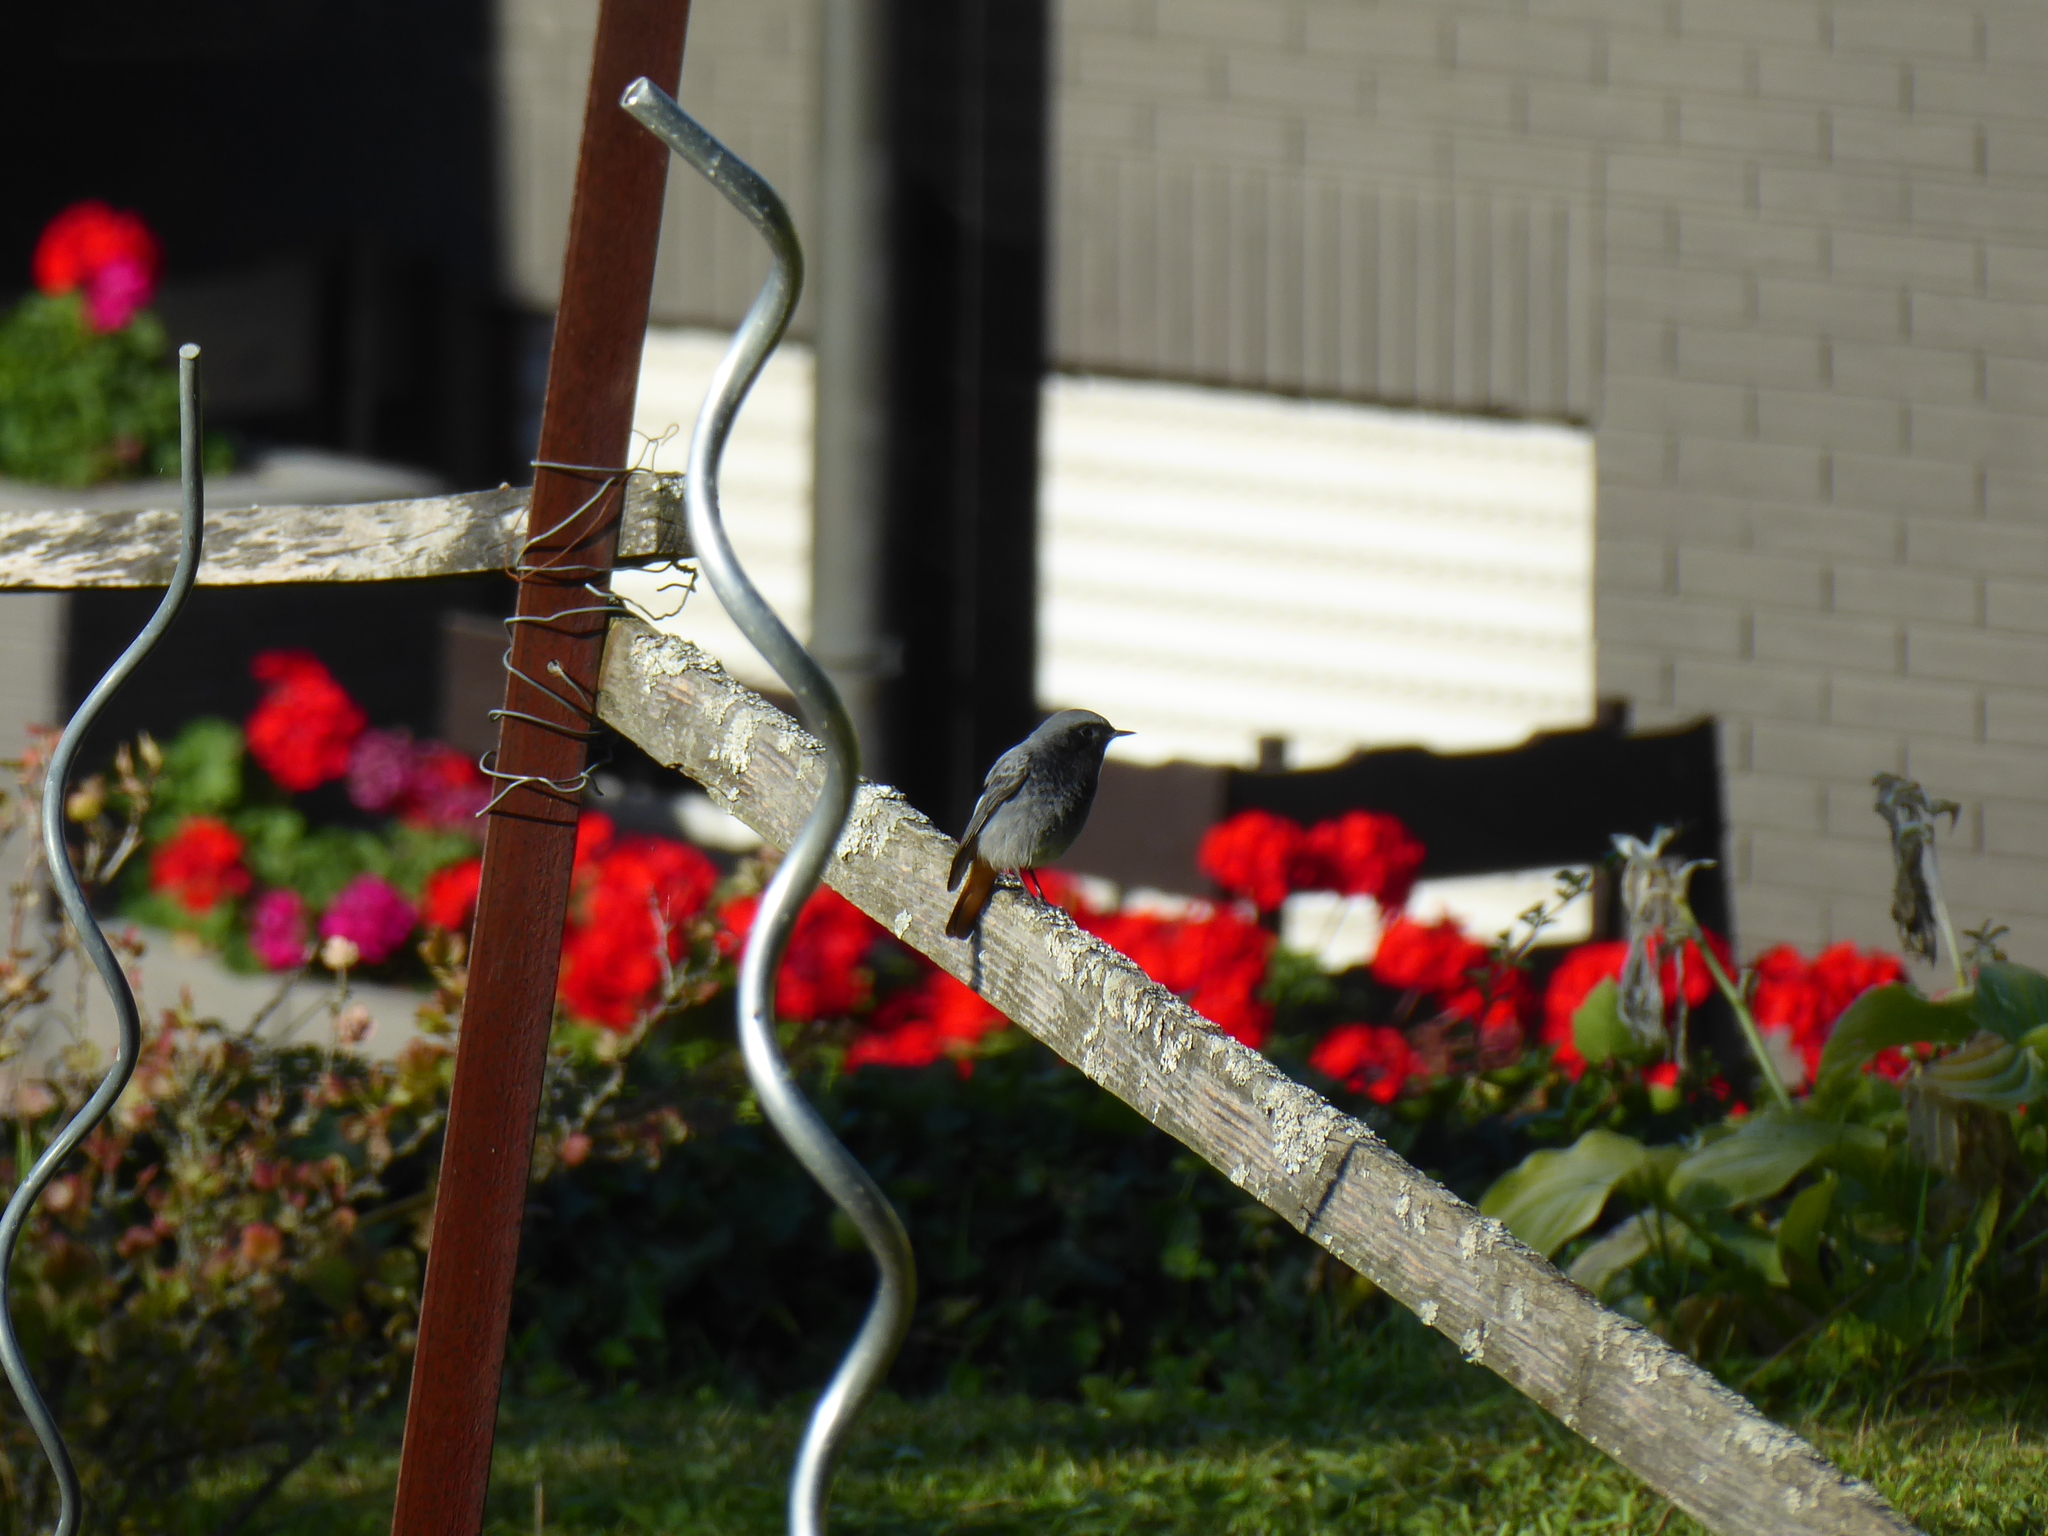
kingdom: Animalia
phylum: Chordata
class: Aves
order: Passeriformes
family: Muscicapidae
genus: Phoenicurus
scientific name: Phoenicurus ochruros
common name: Black redstart
